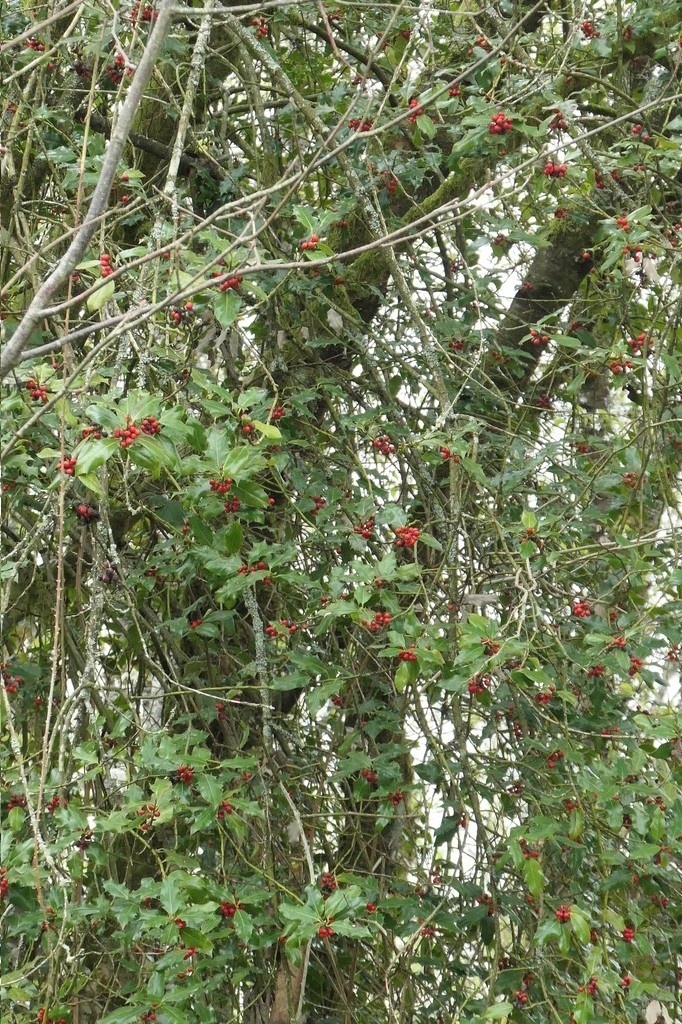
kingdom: Plantae
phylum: Tracheophyta
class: Magnoliopsida
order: Aquifoliales
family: Aquifoliaceae
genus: Ilex
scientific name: Ilex aquifolium
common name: English holly
